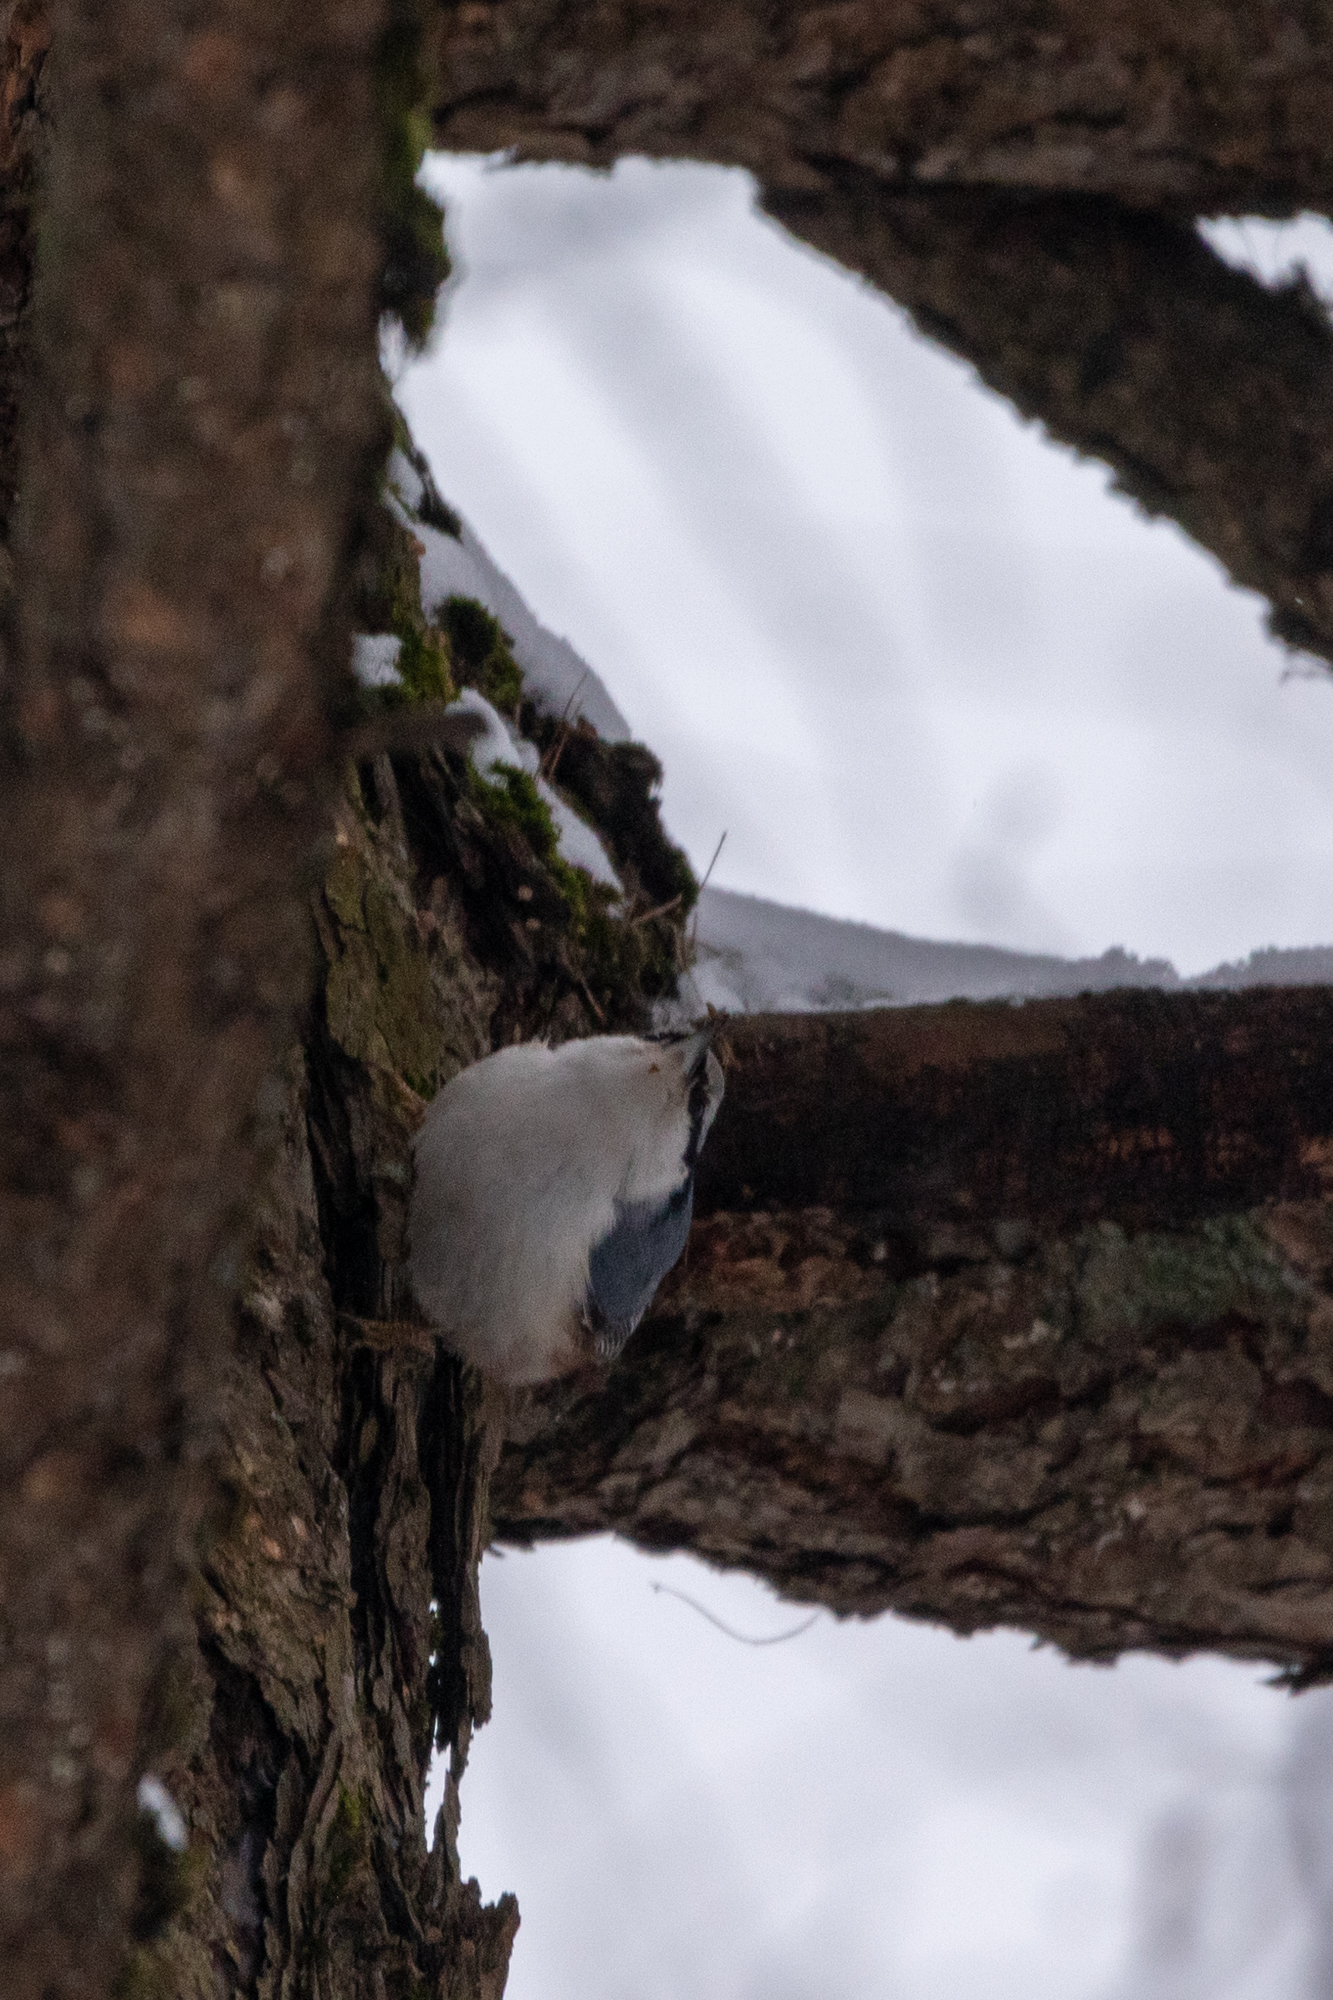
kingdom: Animalia
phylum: Chordata
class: Aves
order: Passeriformes
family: Sittidae
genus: Sitta
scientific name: Sitta europaea
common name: Eurasian nuthatch
